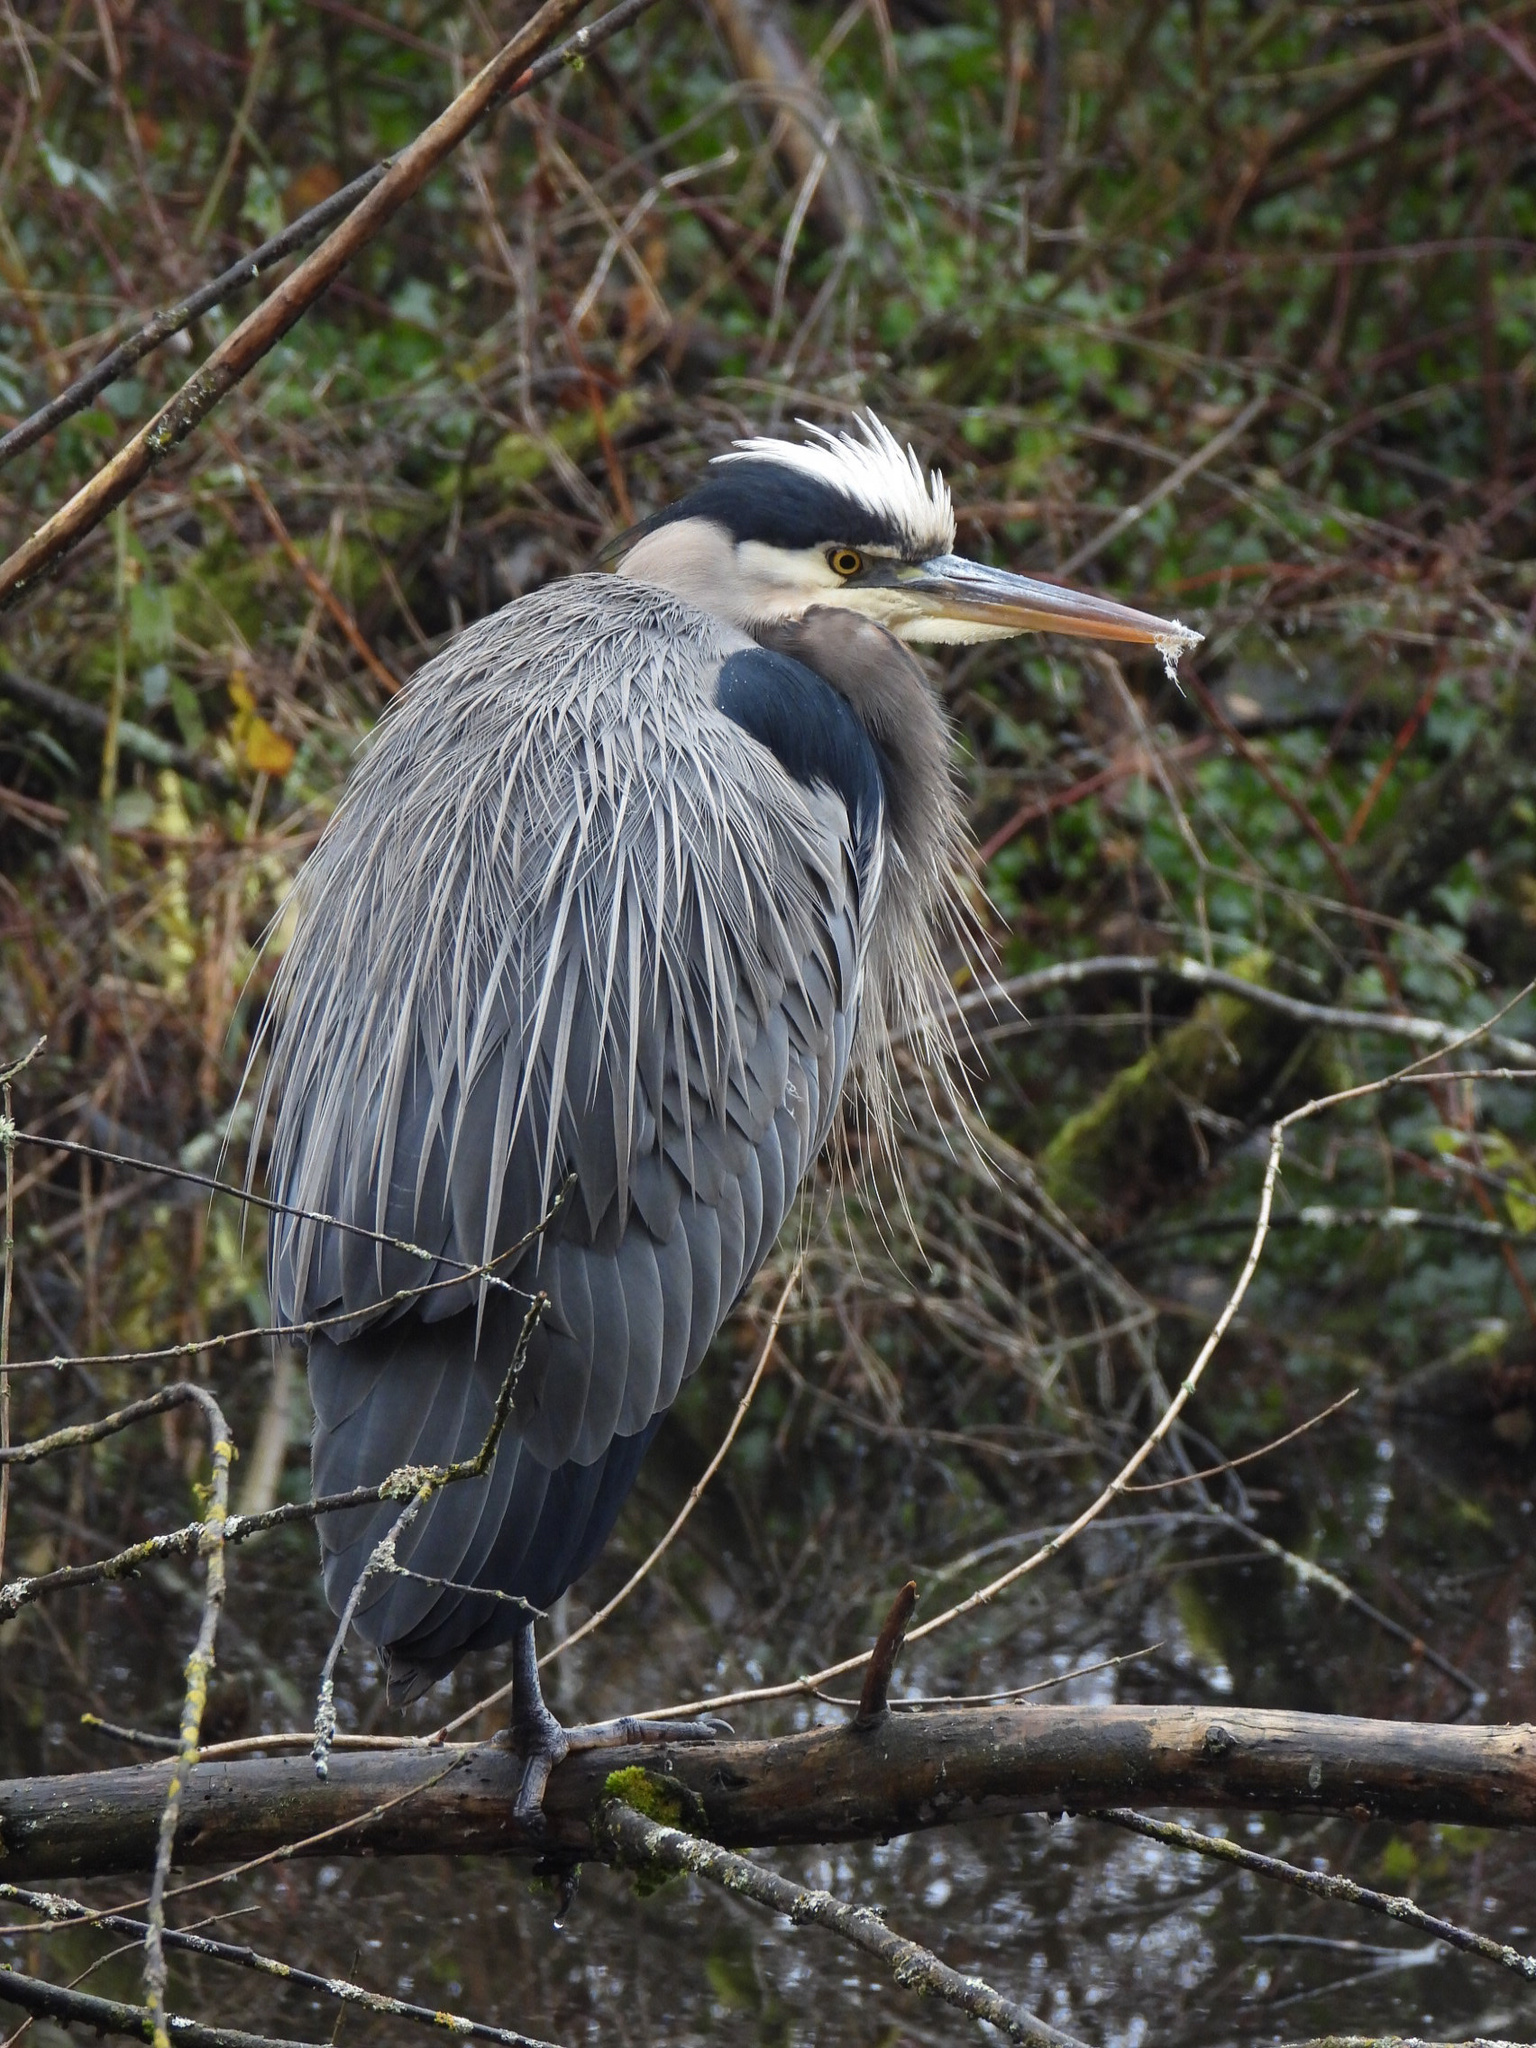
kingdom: Animalia
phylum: Chordata
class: Aves
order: Pelecaniformes
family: Ardeidae
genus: Ardea
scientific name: Ardea herodias
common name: Great blue heron
